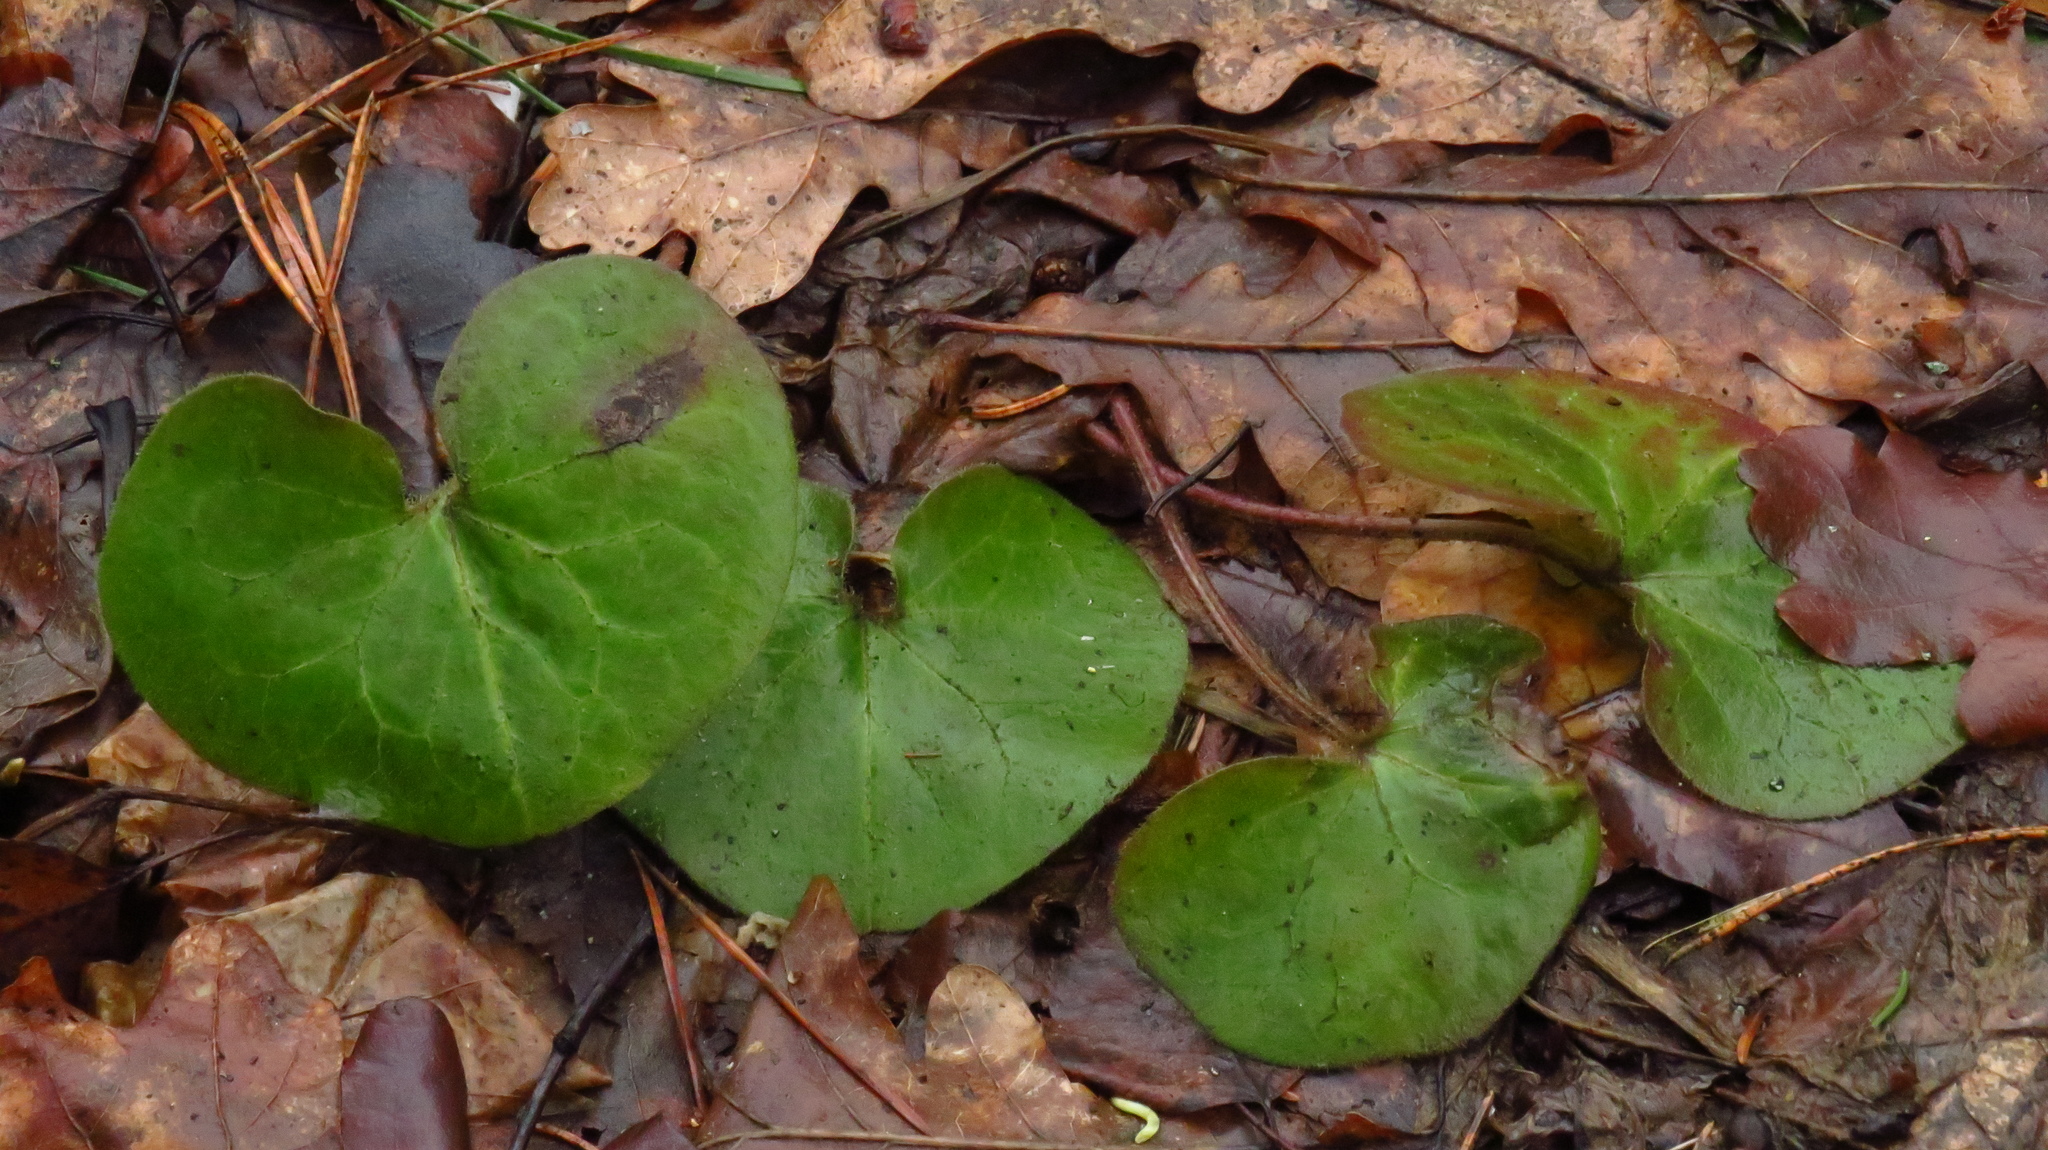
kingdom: Plantae
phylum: Tracheophyta
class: Magnoliopsida
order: Piperales
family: Aristolochiaceae
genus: Asarum
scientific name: Asarum europaeum
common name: Asarabacca
